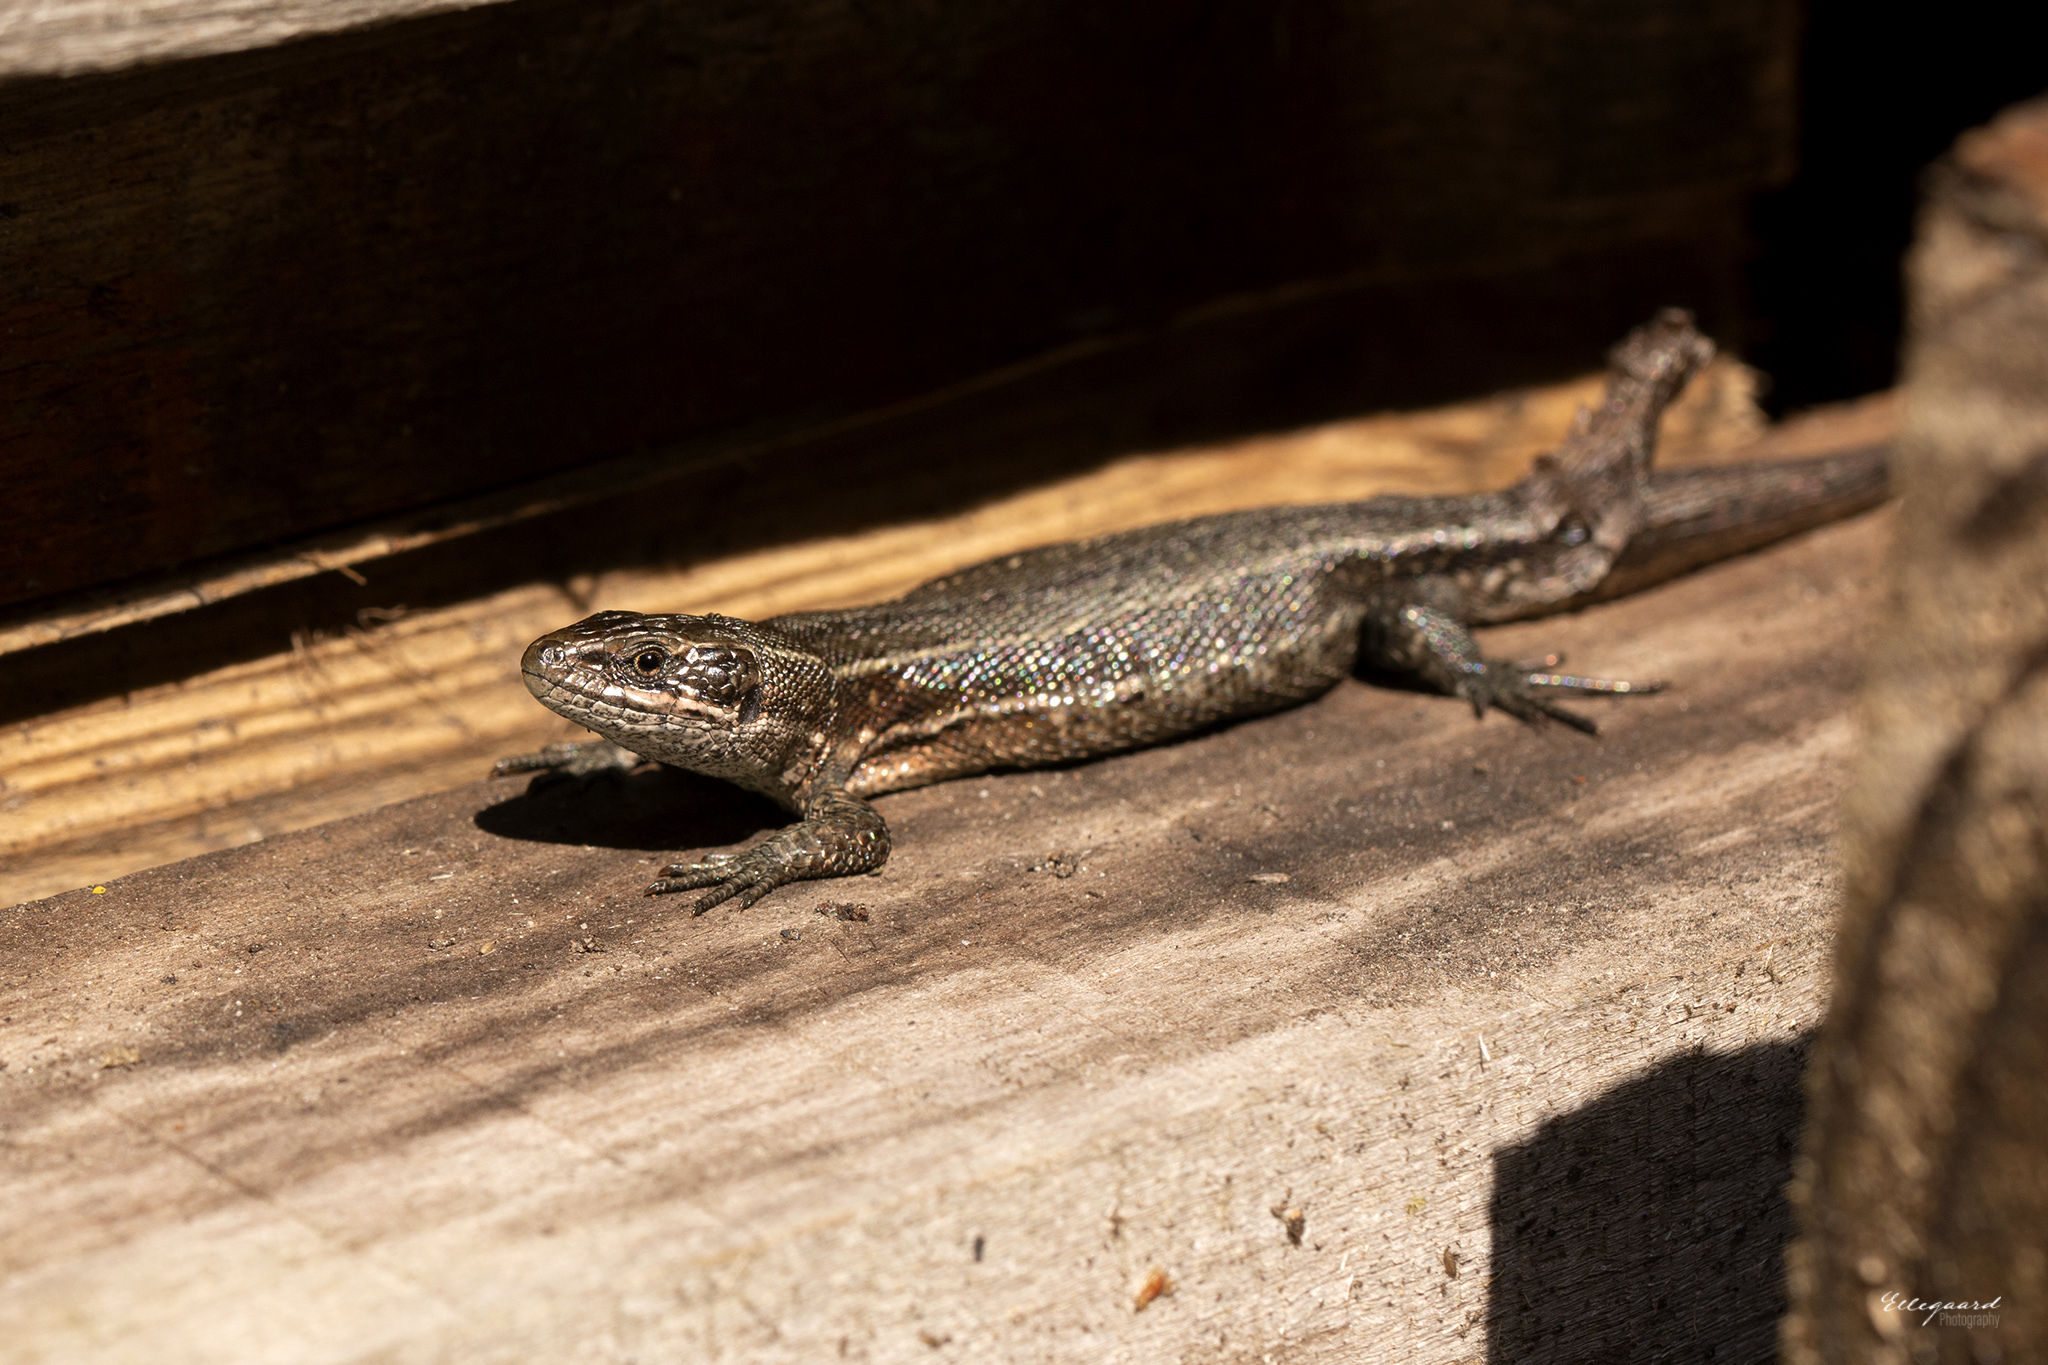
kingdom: Animalia
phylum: Chordata
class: Squamata
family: Lacertidae
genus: Zootoca
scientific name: Zootoca vivipara
